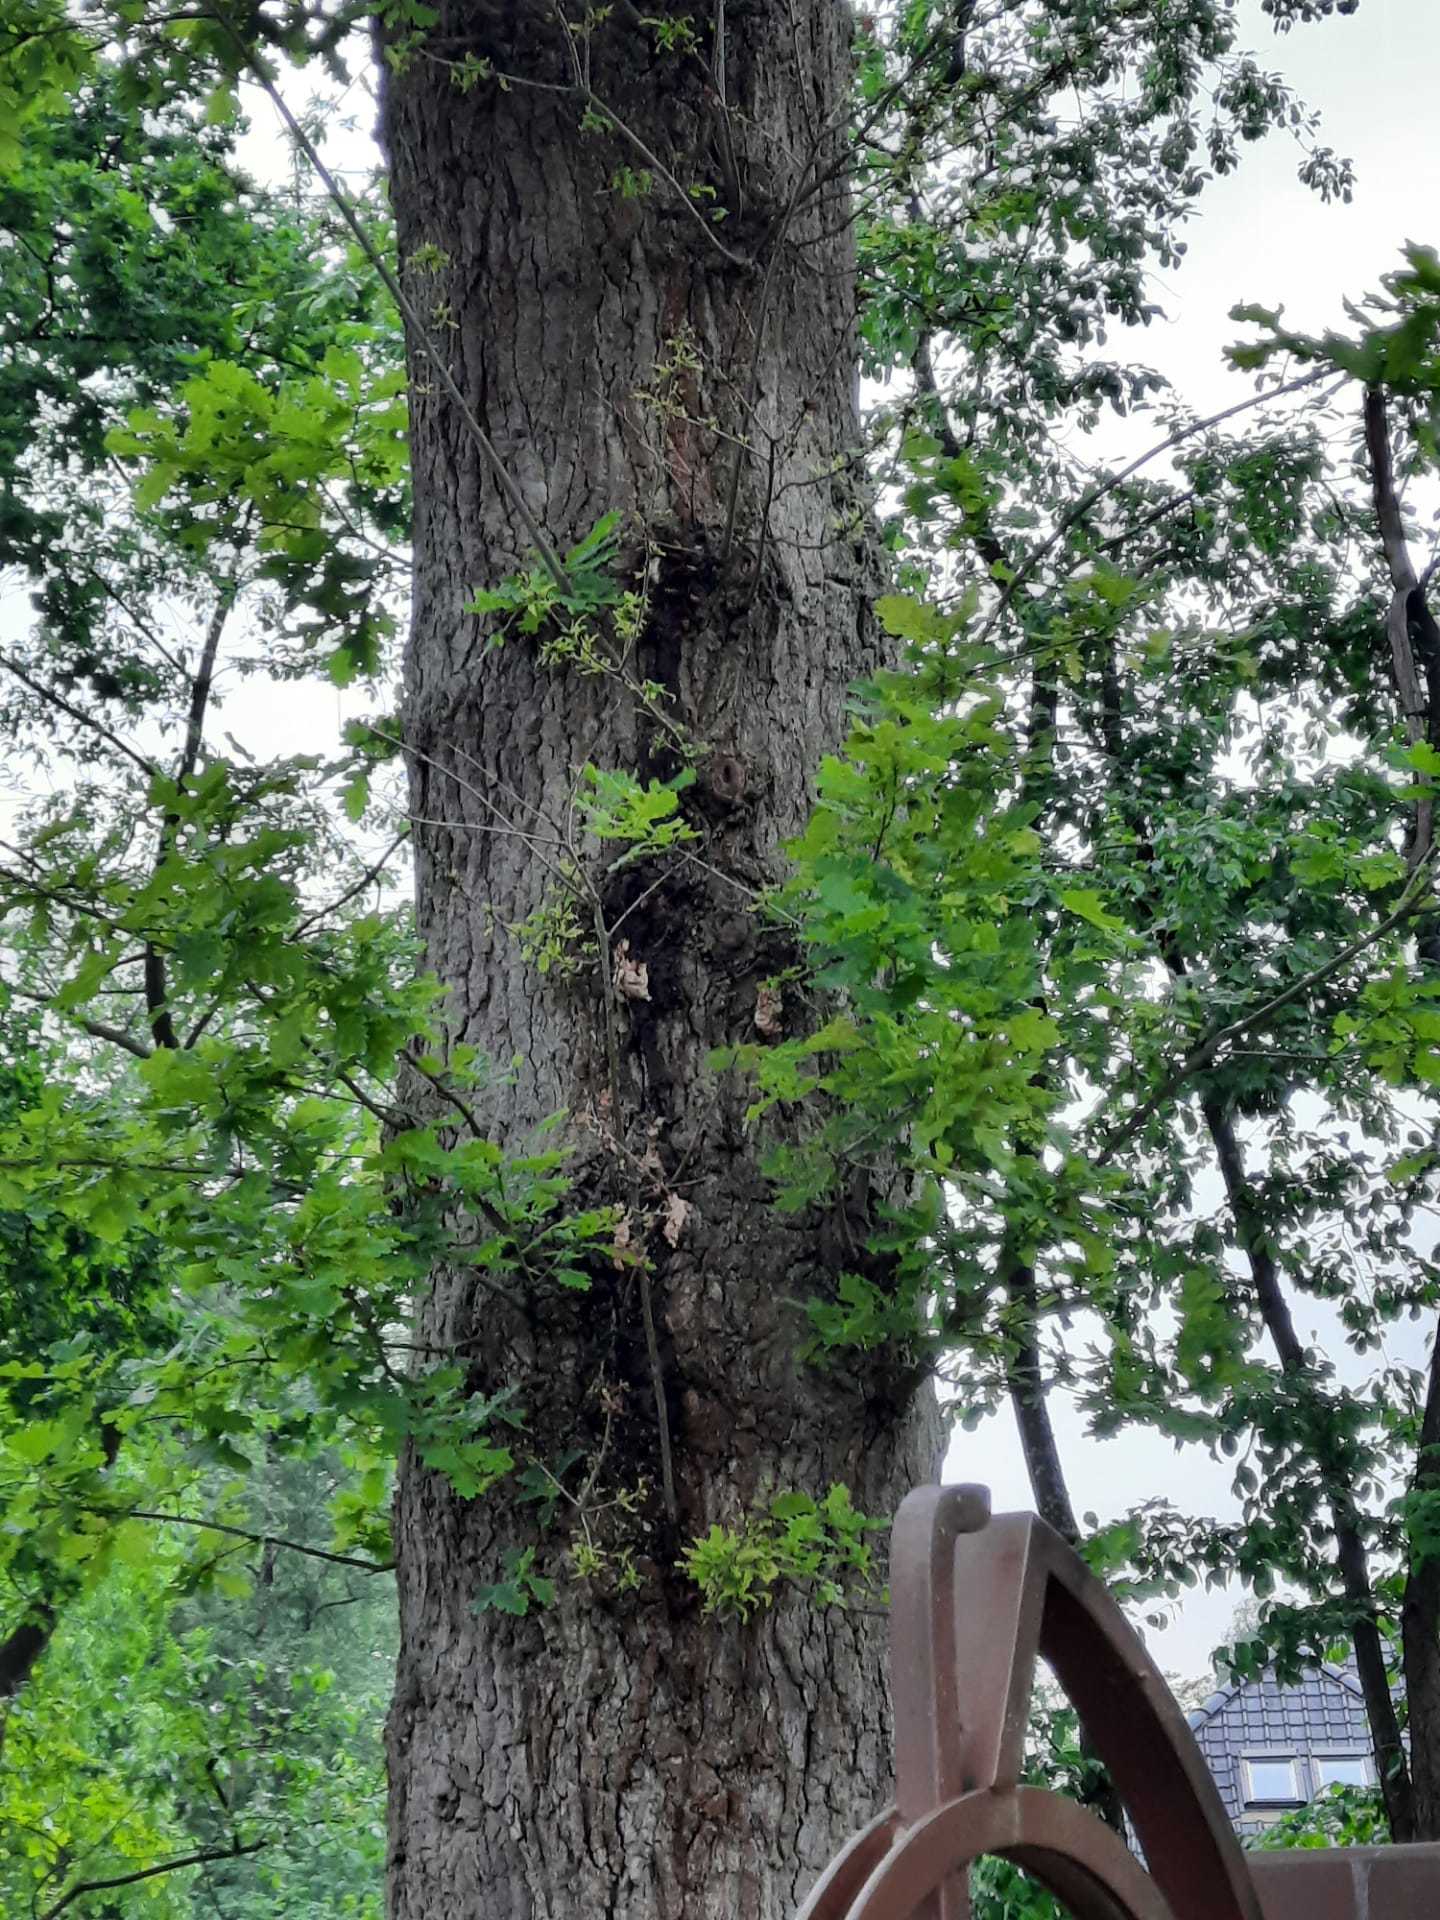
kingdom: Animalia
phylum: Arthropoda
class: Insecta
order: Hymenoptera
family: Vespidae
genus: Vespa
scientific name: Vespa crabro
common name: Hornet
